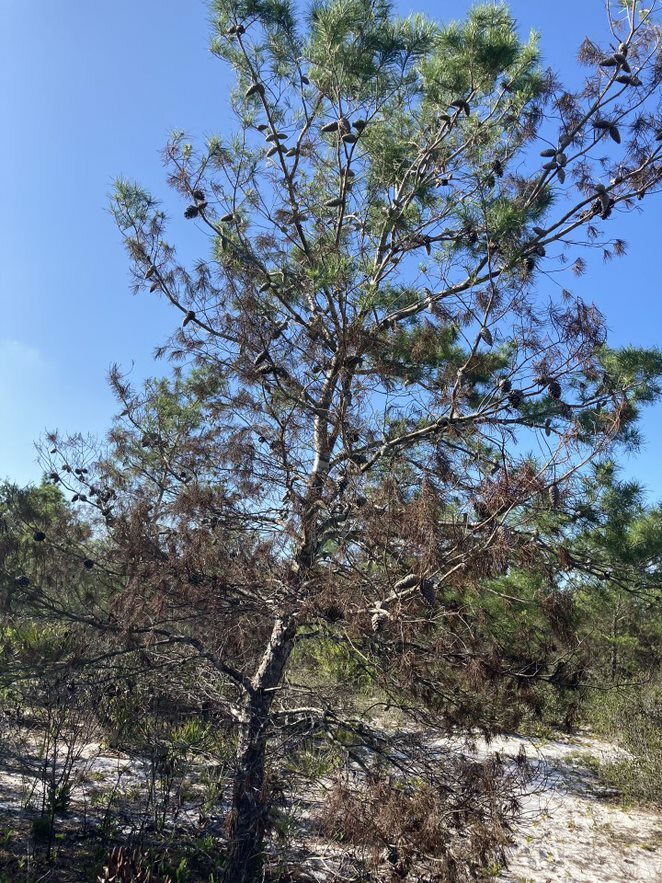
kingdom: Plantae
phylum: Tracheophyta
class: Pinopsida
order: Pinales
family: Pinaceae
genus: Pinus
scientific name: Pinus clausa
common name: Sand pine
